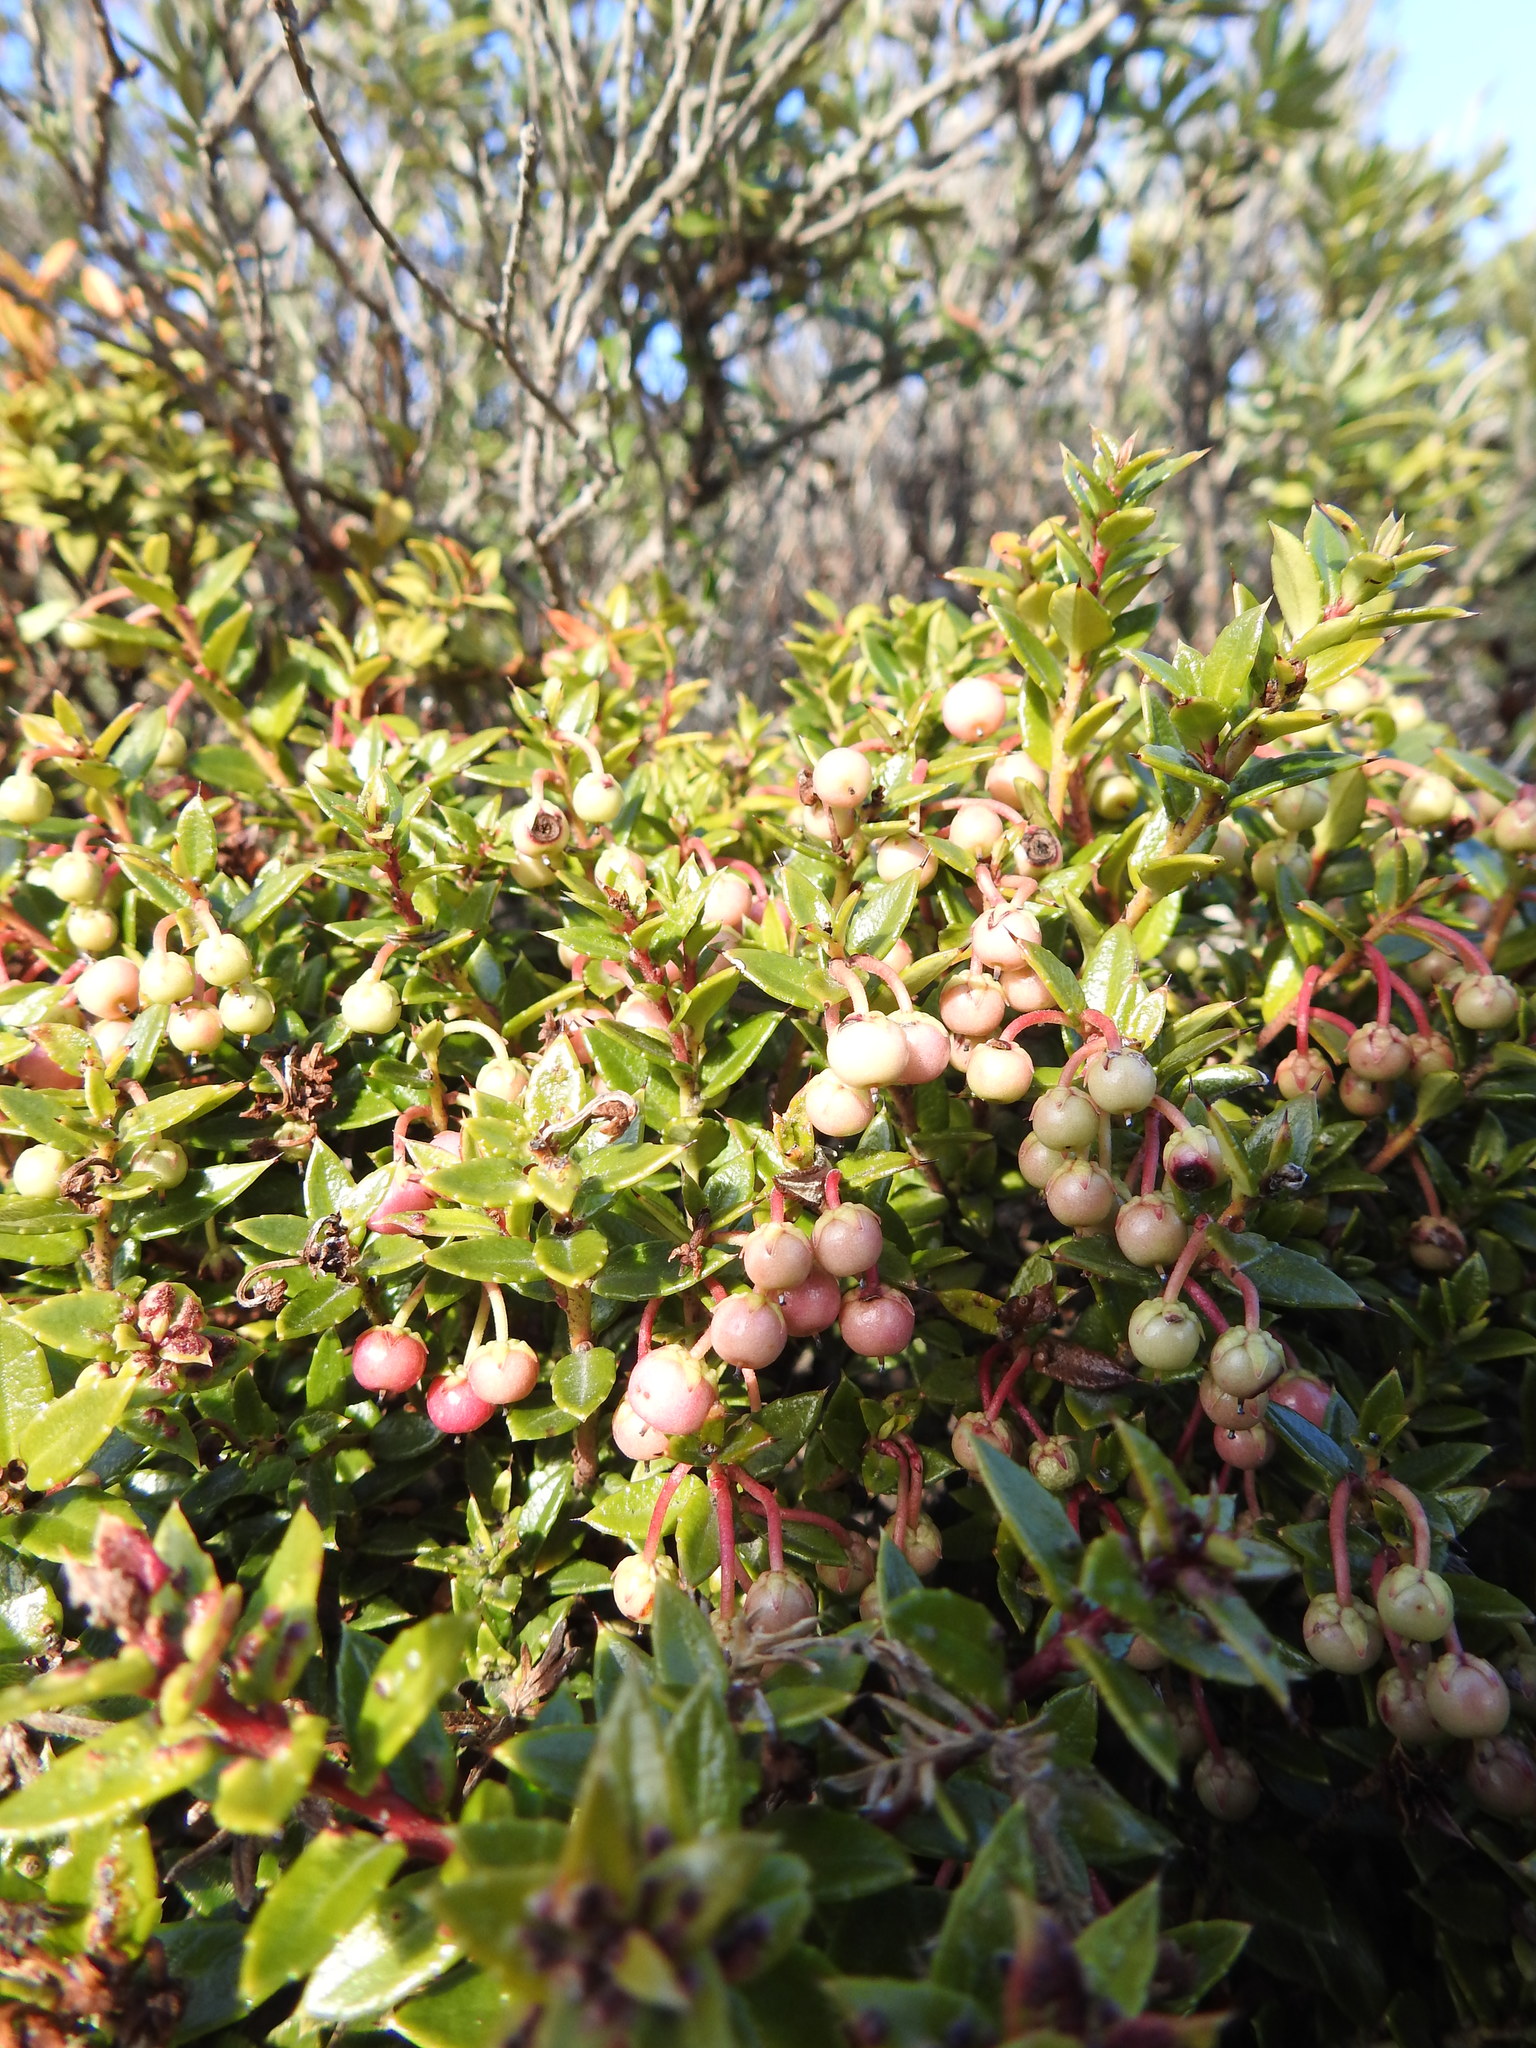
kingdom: Plantae
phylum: Tracheophyta
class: Magnoliopsida
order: Ericales
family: Ericaceae
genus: Gaultheria
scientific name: Gaultheria mucronata
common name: Prickly heath
